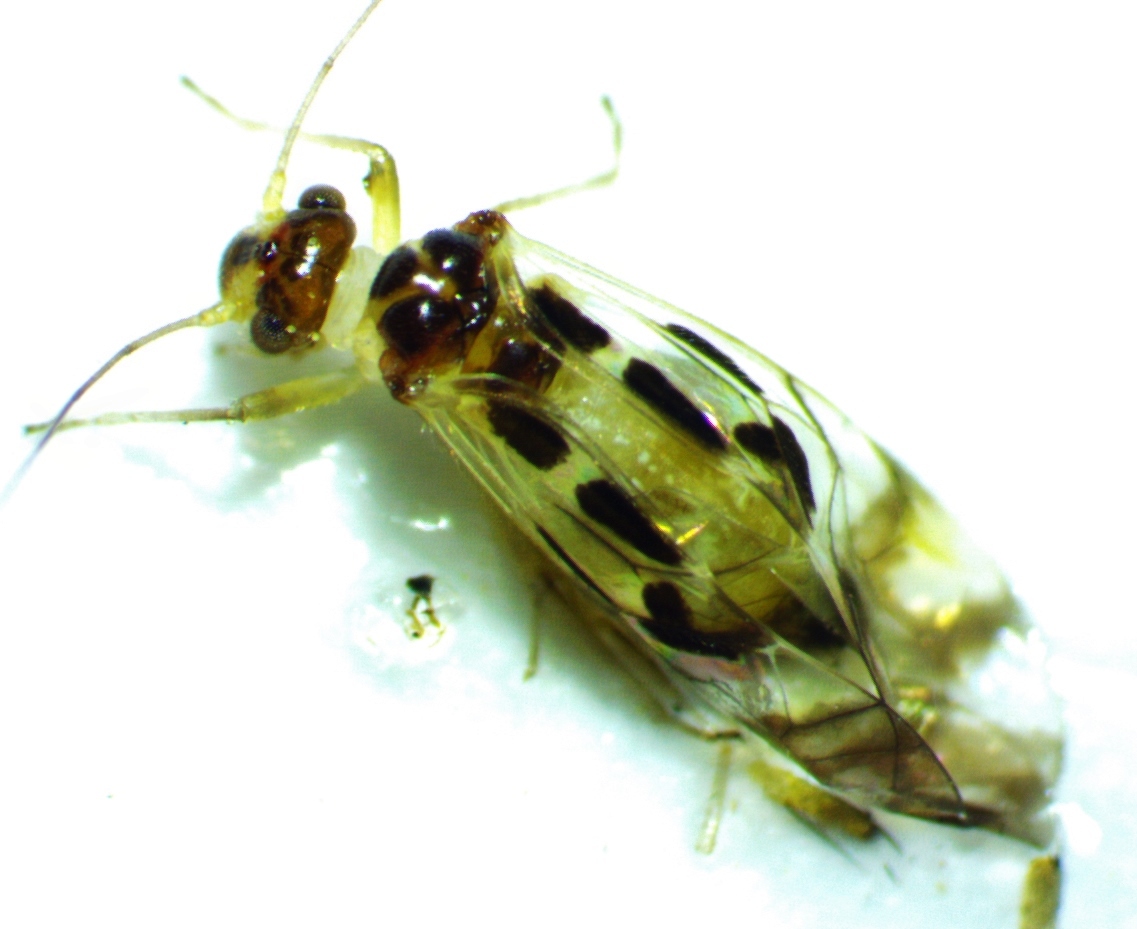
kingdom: Animalia
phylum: Arthropoda
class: Insecta
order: Psocodea
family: Stenopsocidae
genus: Graphopsocus
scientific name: Graphopsocus cruciatus
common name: Lizard bark louse
